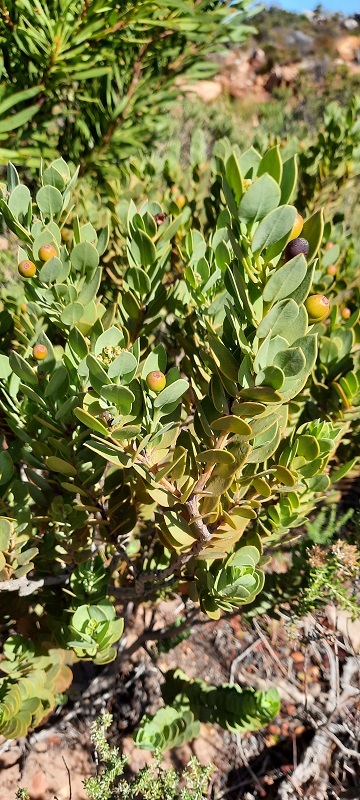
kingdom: Plantae
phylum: Tracheophyta
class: Magnoliopsida
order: Santalales
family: Santalaceae
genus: Osyris
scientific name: Osyris compressa
